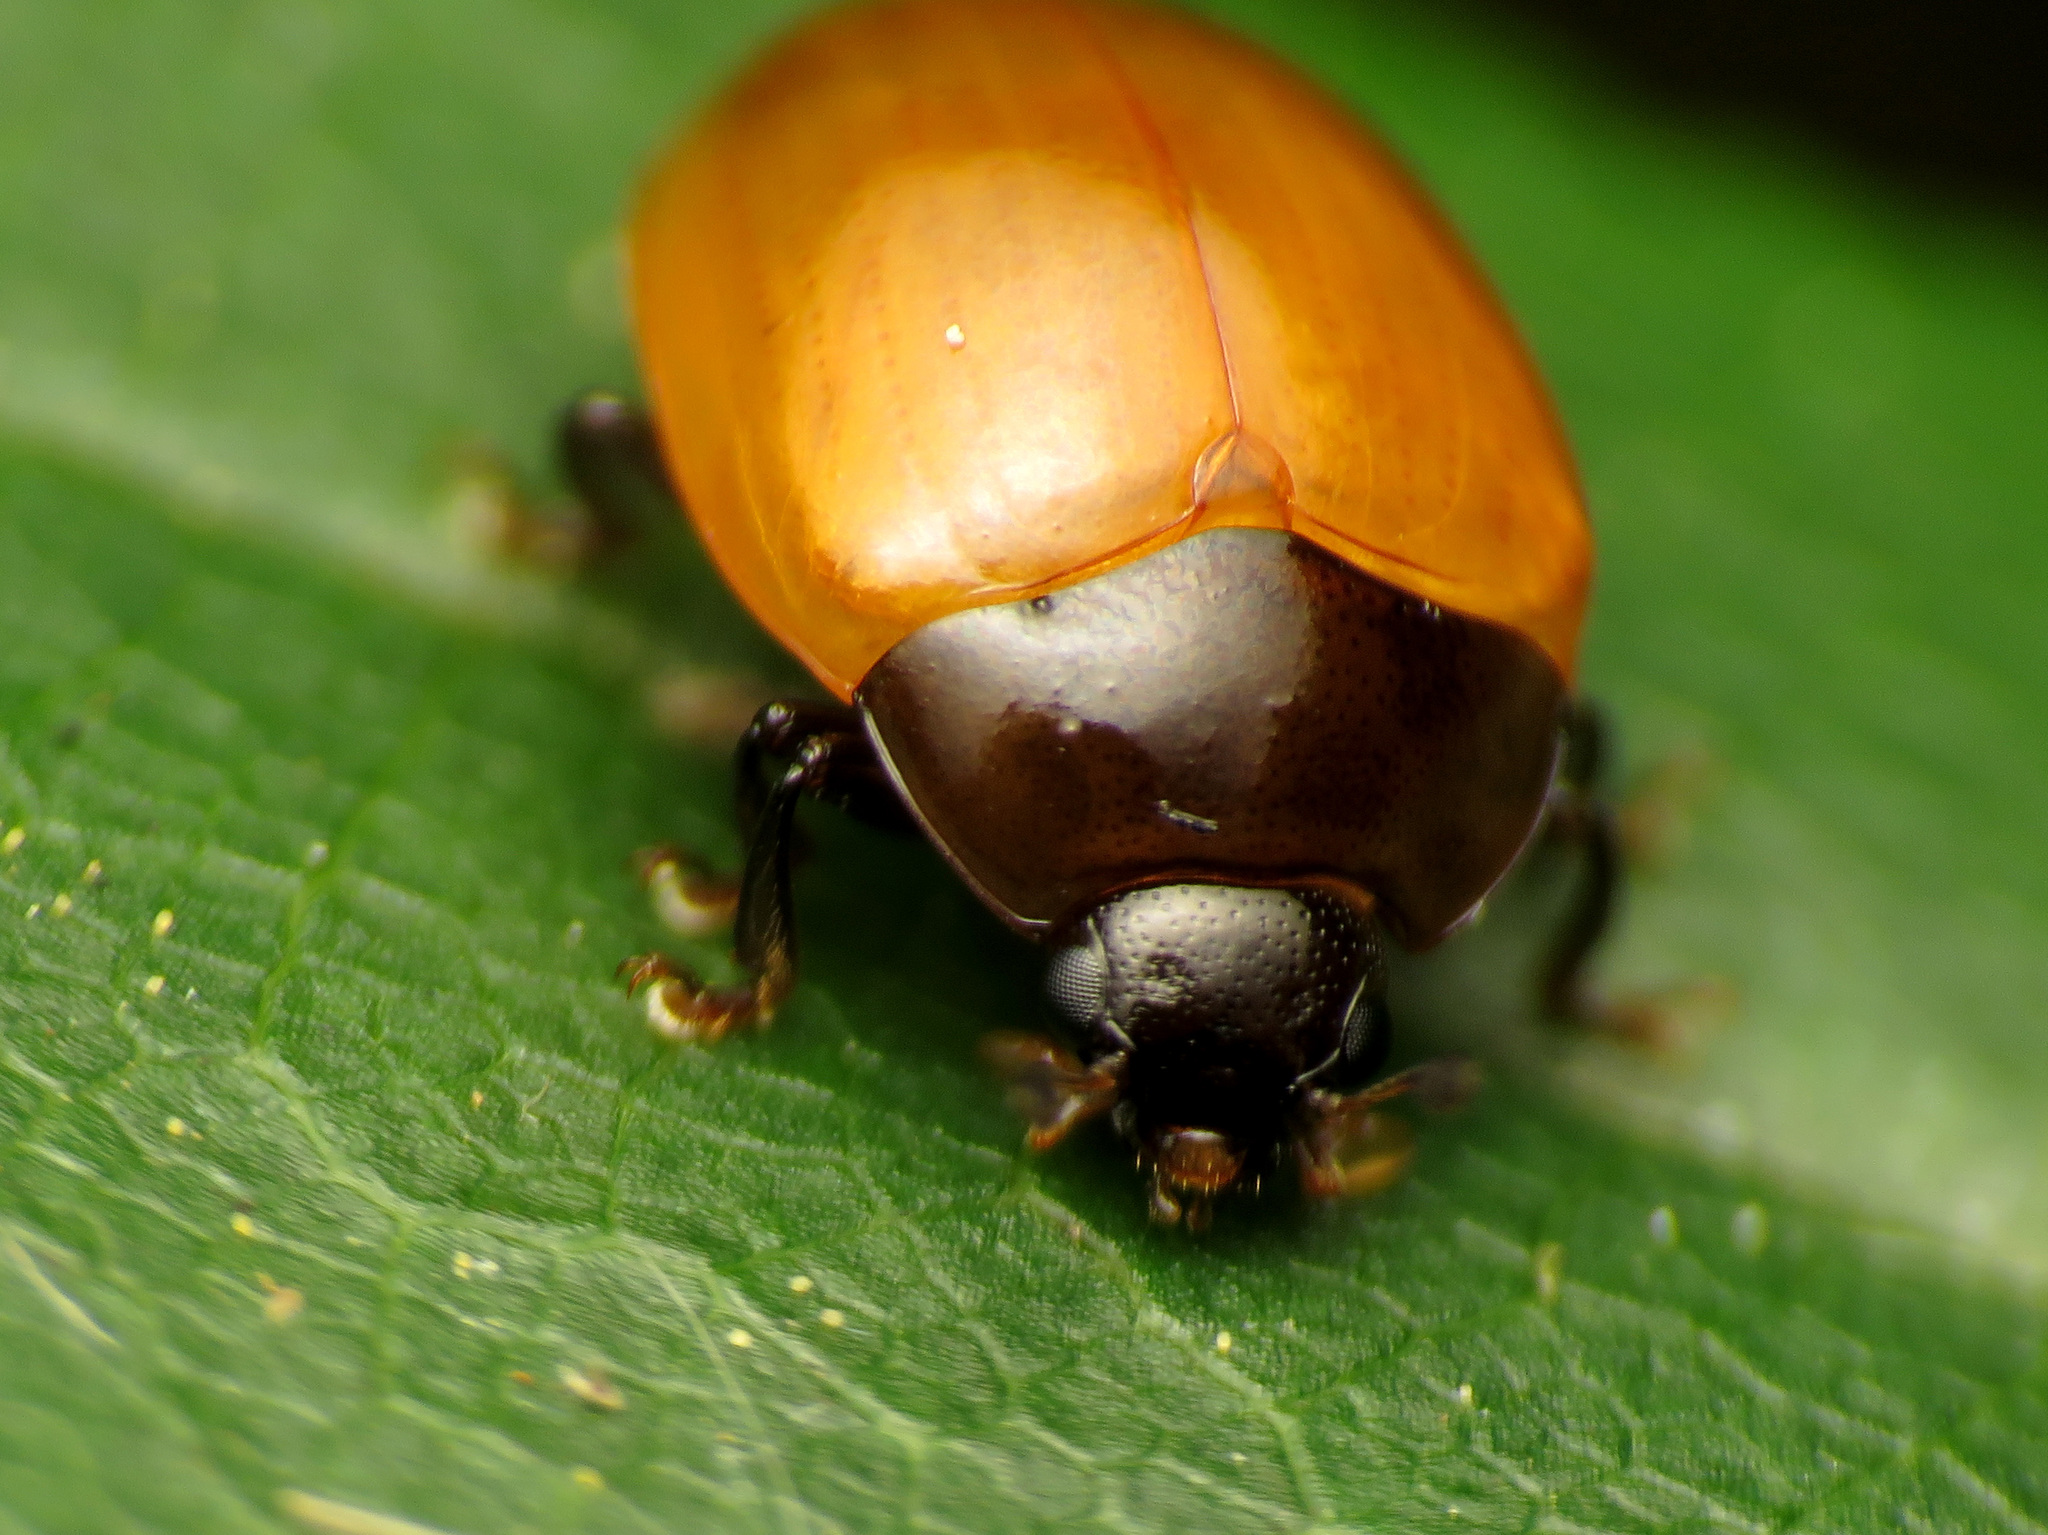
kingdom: Animalia
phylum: Arthropoda
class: Insecta
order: Coleoptera
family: Erotylidae
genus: Tritoma
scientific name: Tritoma sanguinipennis
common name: Red-winged tritoma
